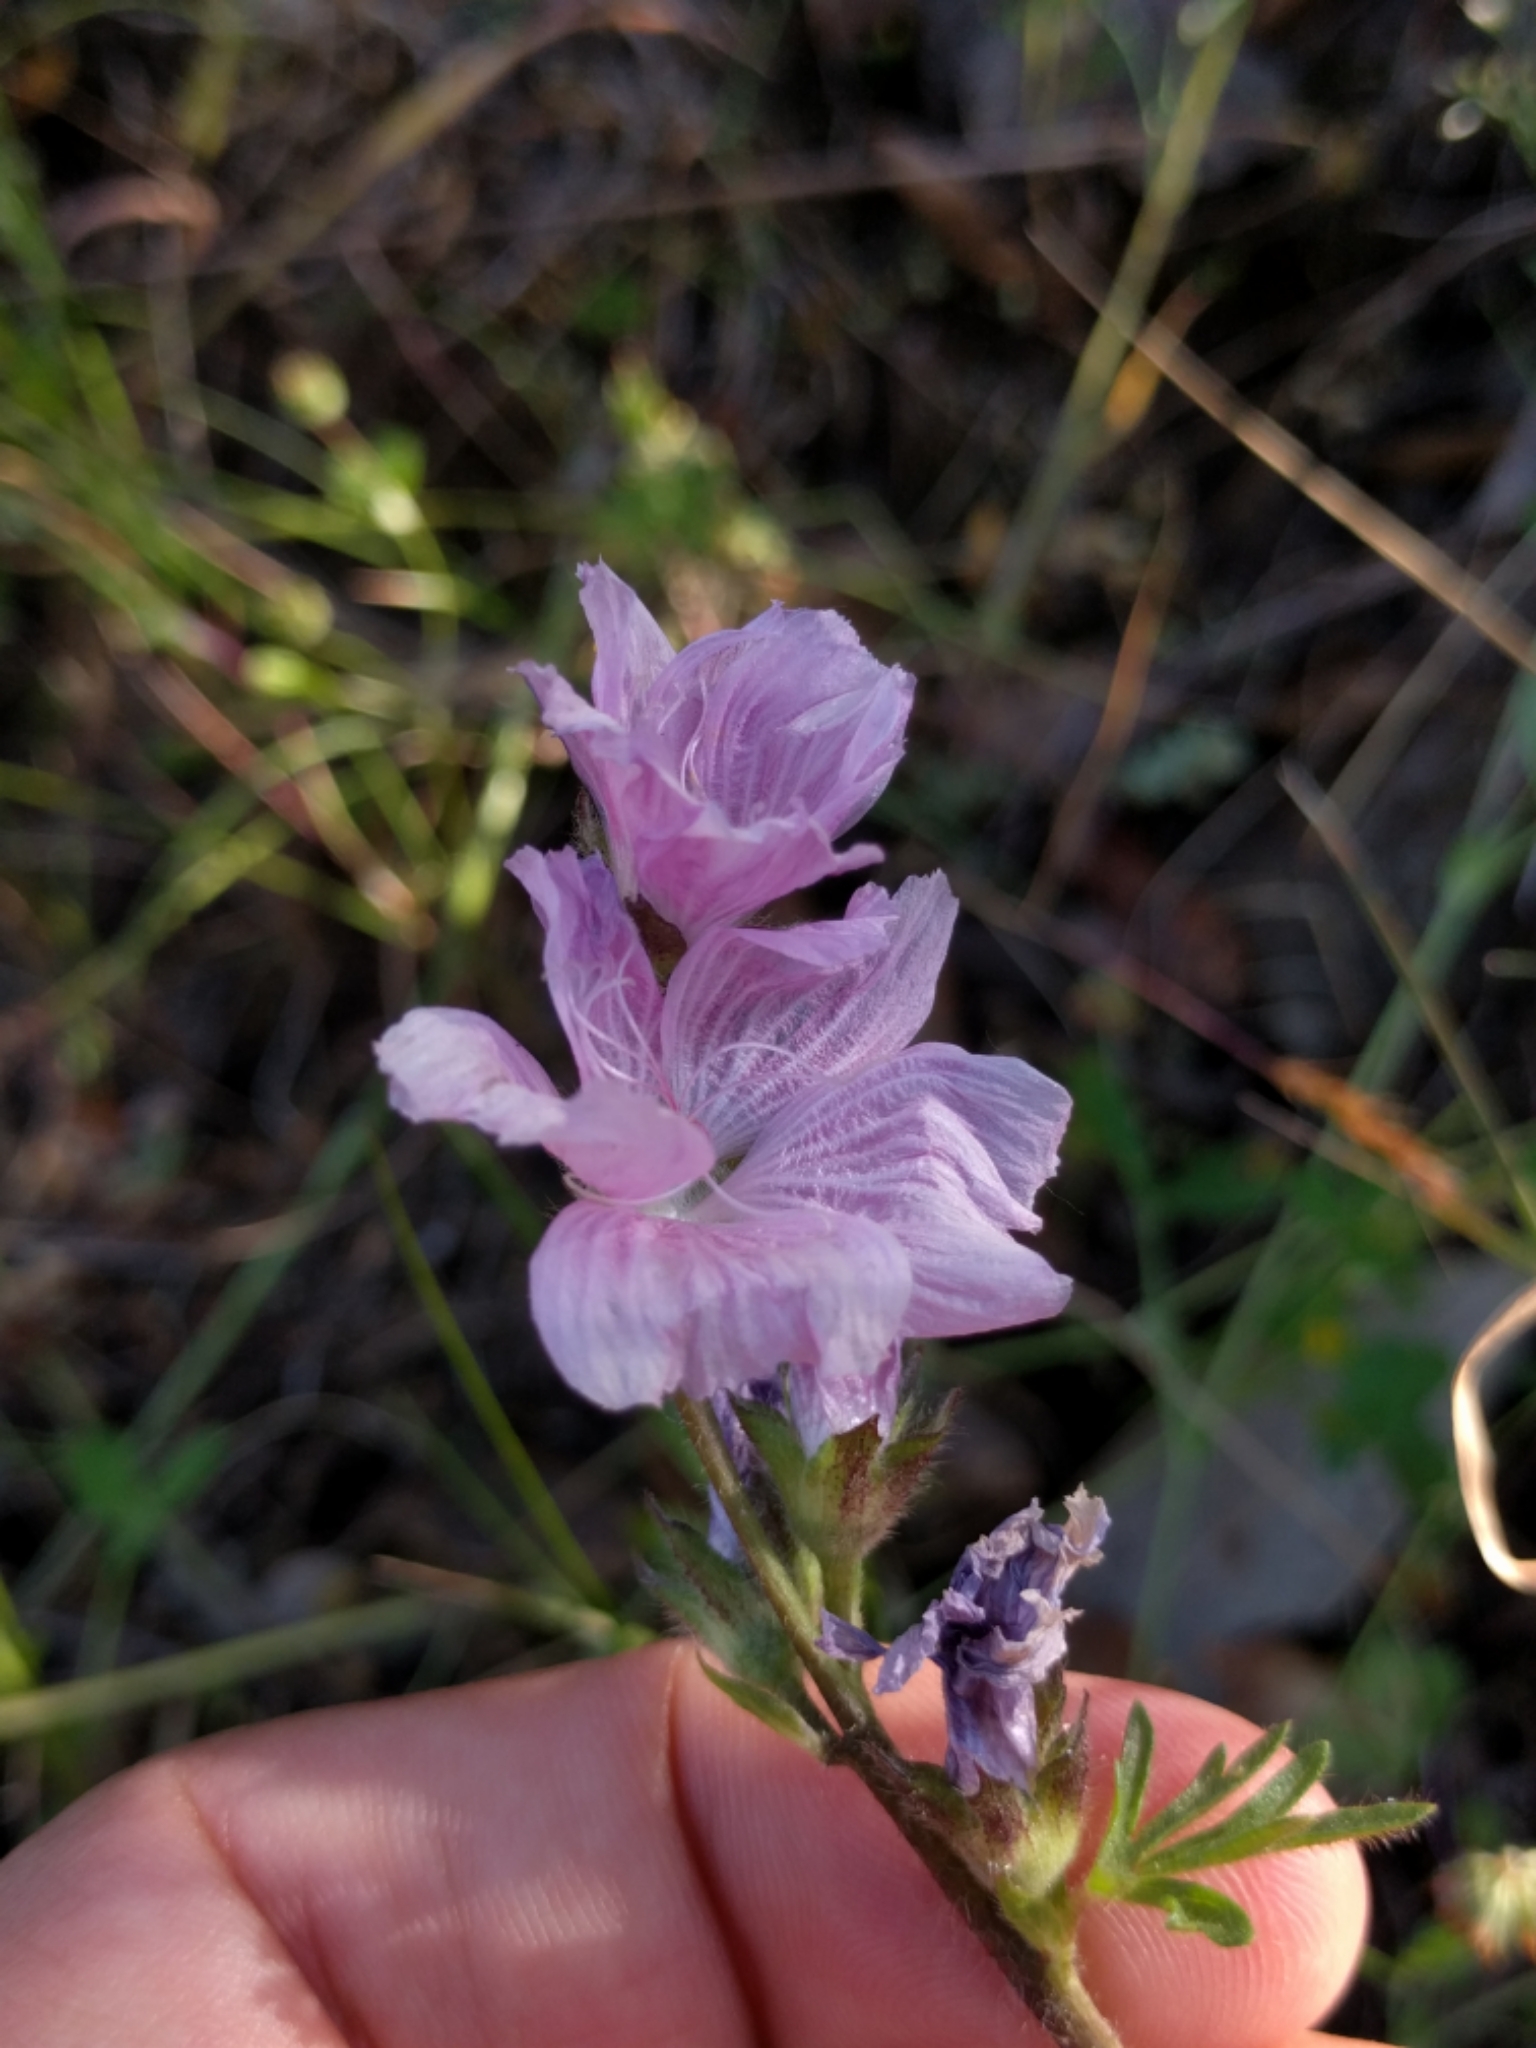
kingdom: Plantae
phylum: Tracheophyta
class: Magnoliopsida
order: Malvales
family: Malvaceae
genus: Sidalcea
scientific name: Sidalcea malviflora
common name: Greek mallow
